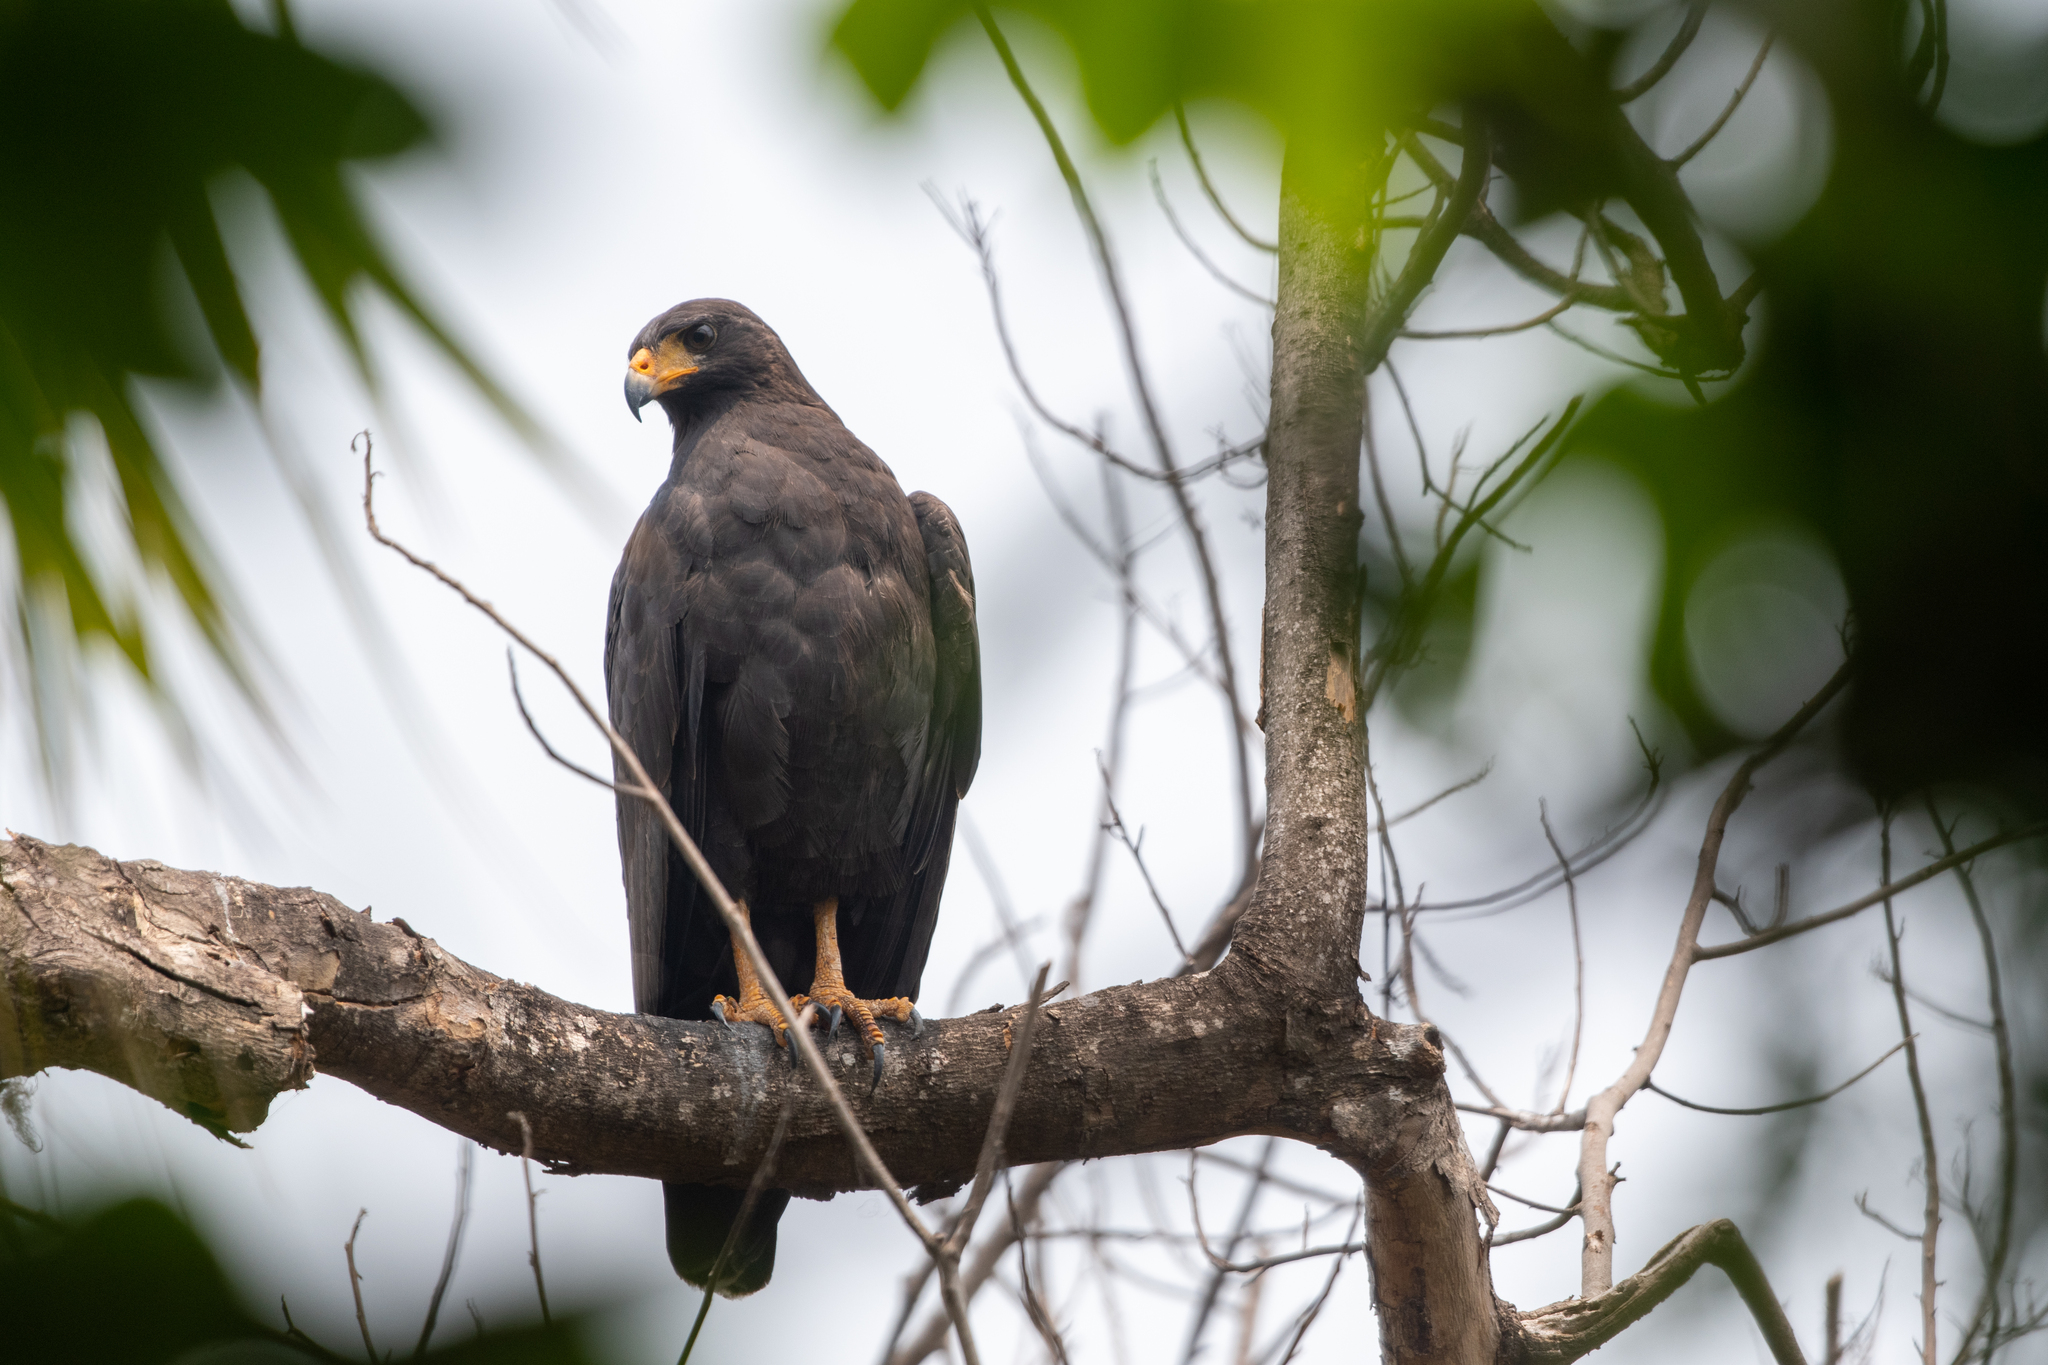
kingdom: Animalia
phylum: Chordata
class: Aves
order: Accipitriformes
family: Accipitridae
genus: Buteogallus
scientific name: Buteogallus anthracinus
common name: Common black hawk
